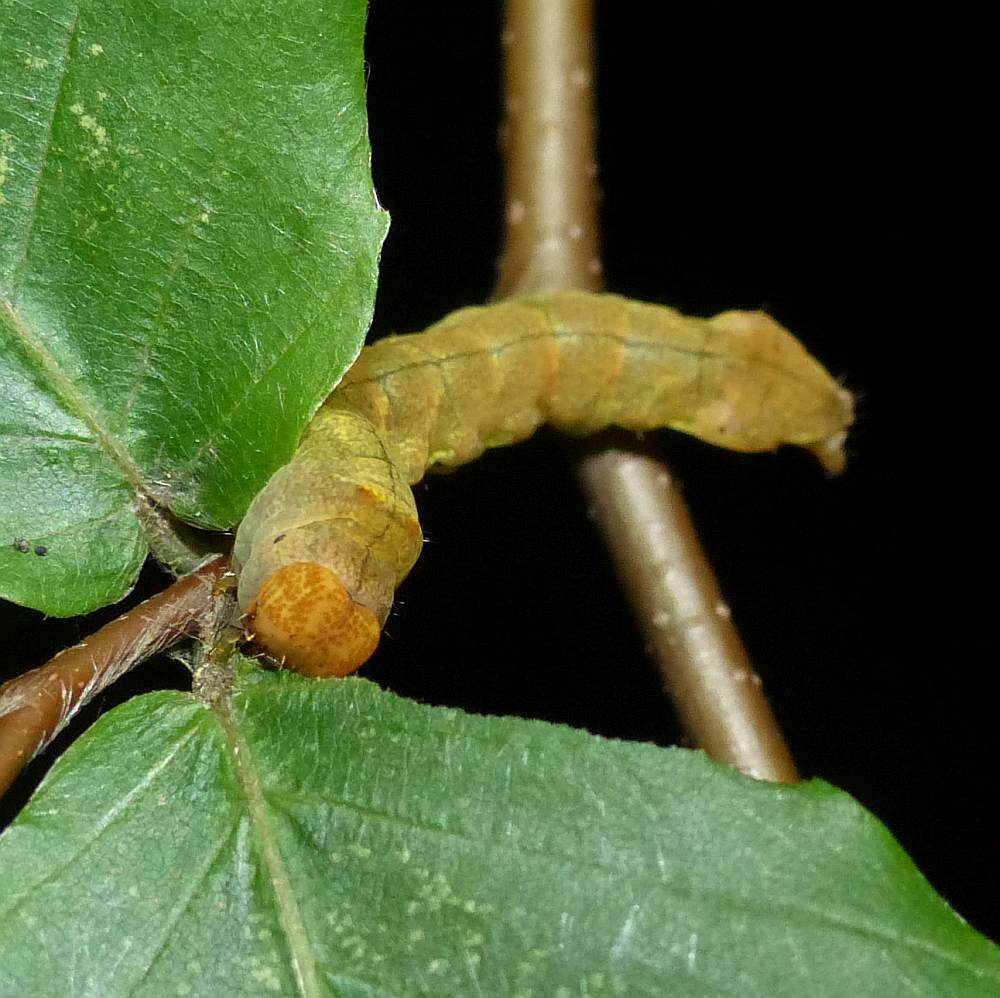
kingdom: Animalia
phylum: Arthropoda
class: Insecta
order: Lepidoptera
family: Drepanidae
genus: Pseudothyatira
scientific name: Pseudothyatira cymatophoroides
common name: Tufted thyatirid moth
